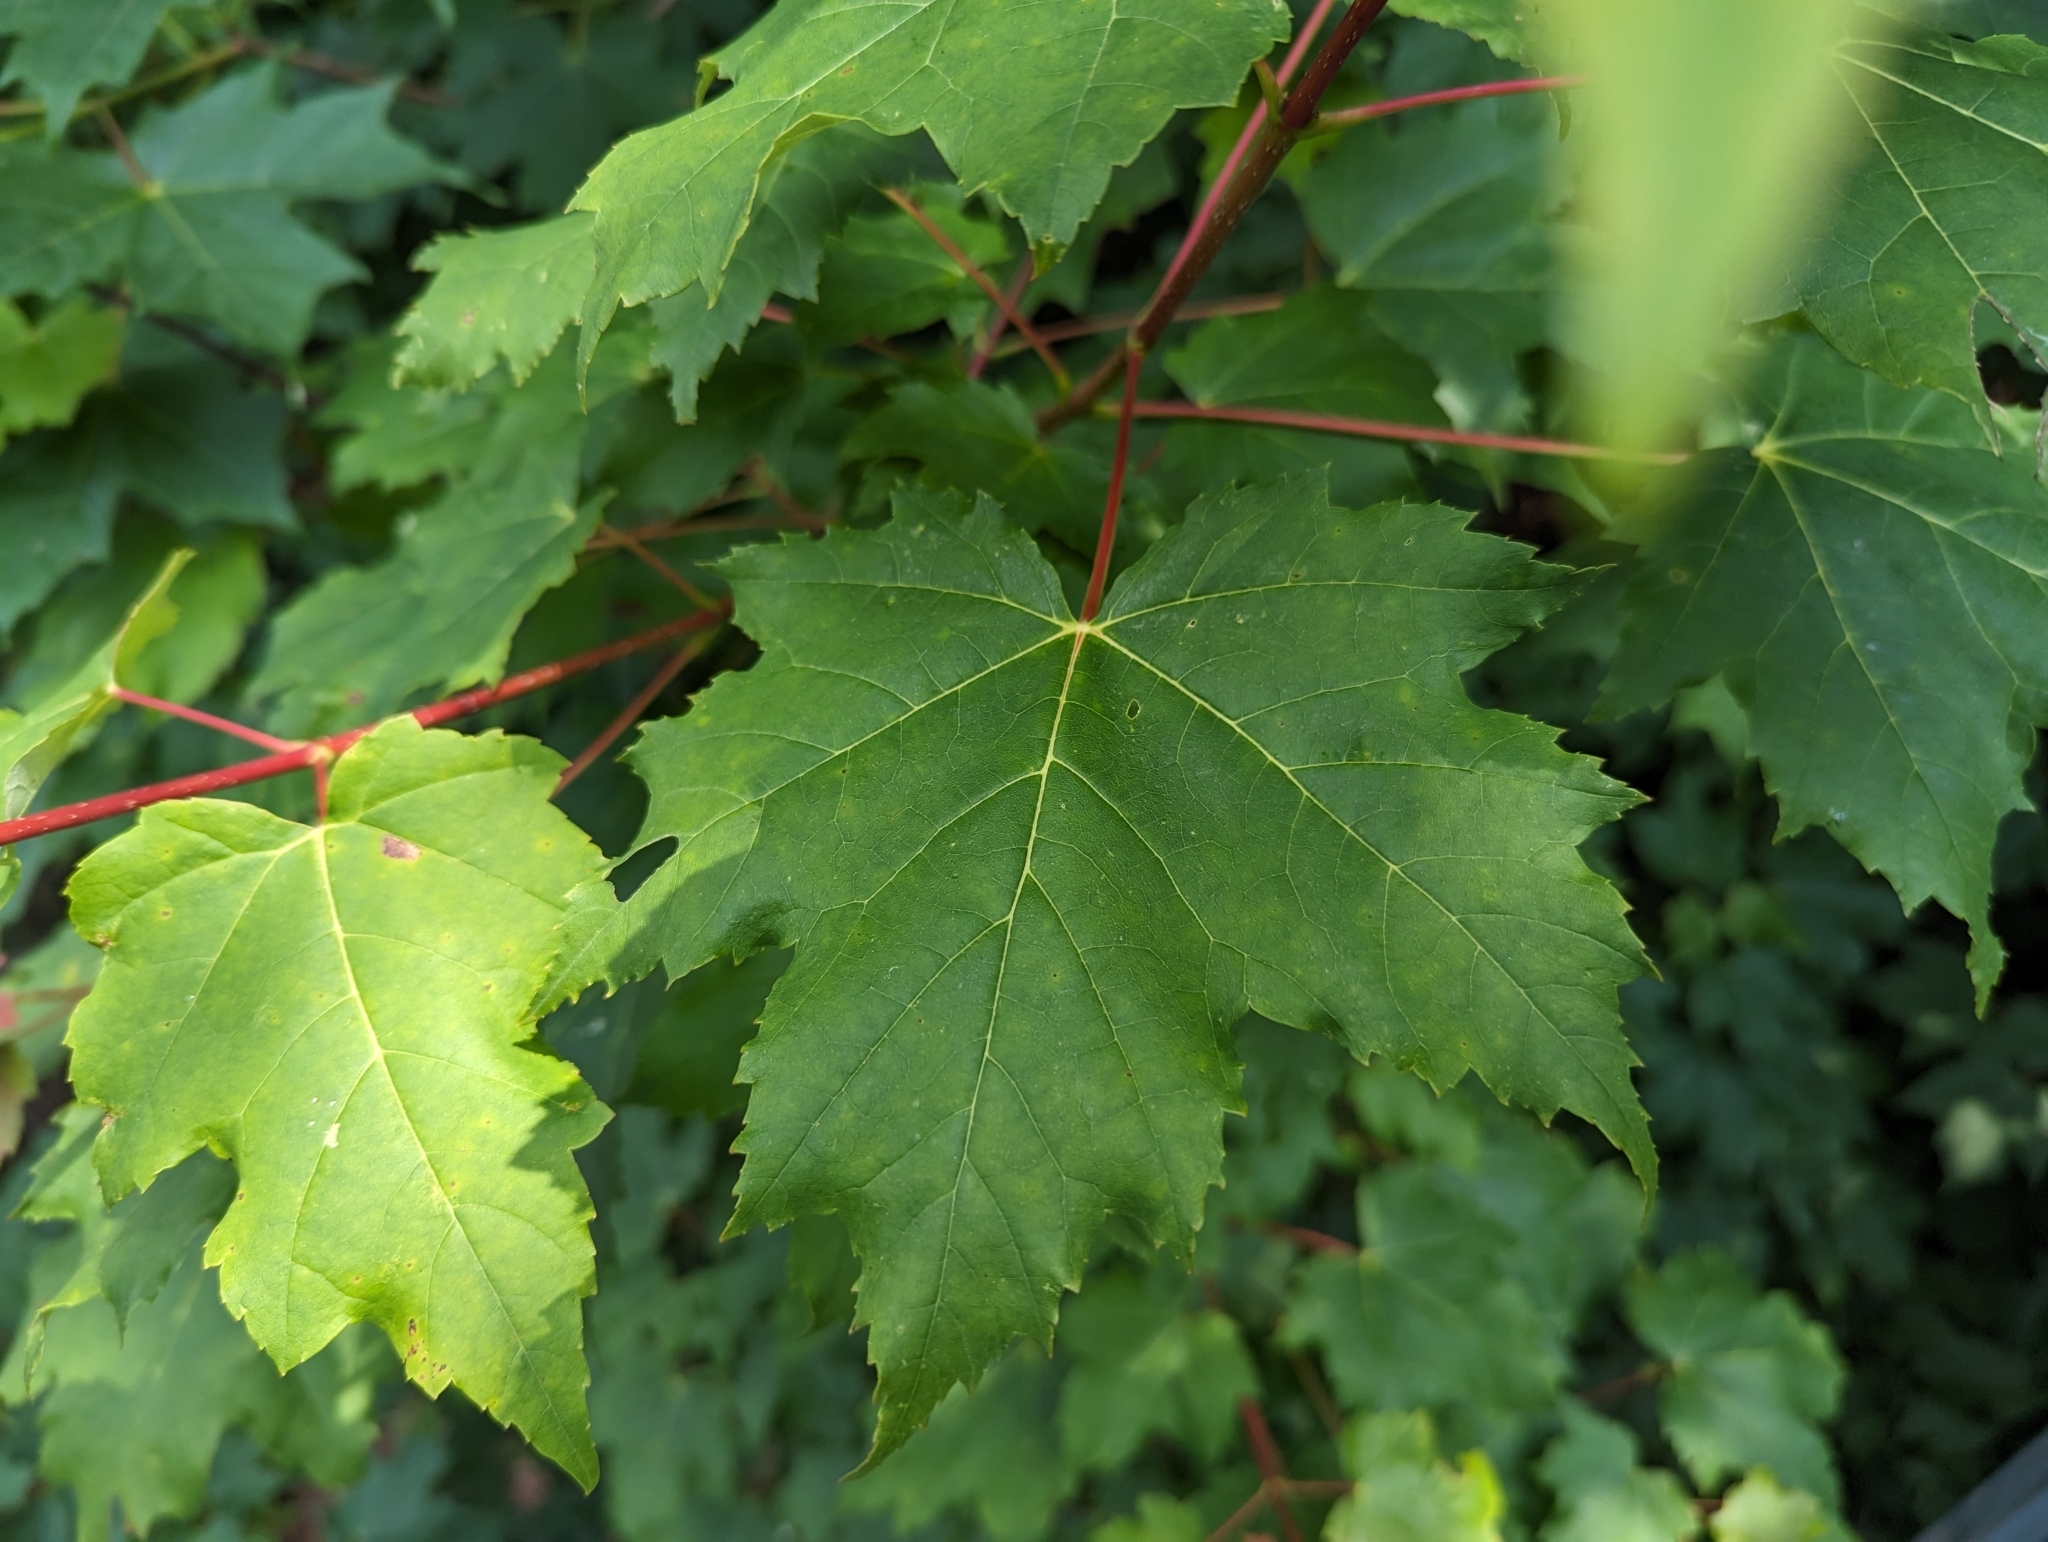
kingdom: Plantae
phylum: Tracheophyta
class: Magnoliopsida
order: Sapindales
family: Sapindaceae
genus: Acer
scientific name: Acer rubrum
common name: Red maple
